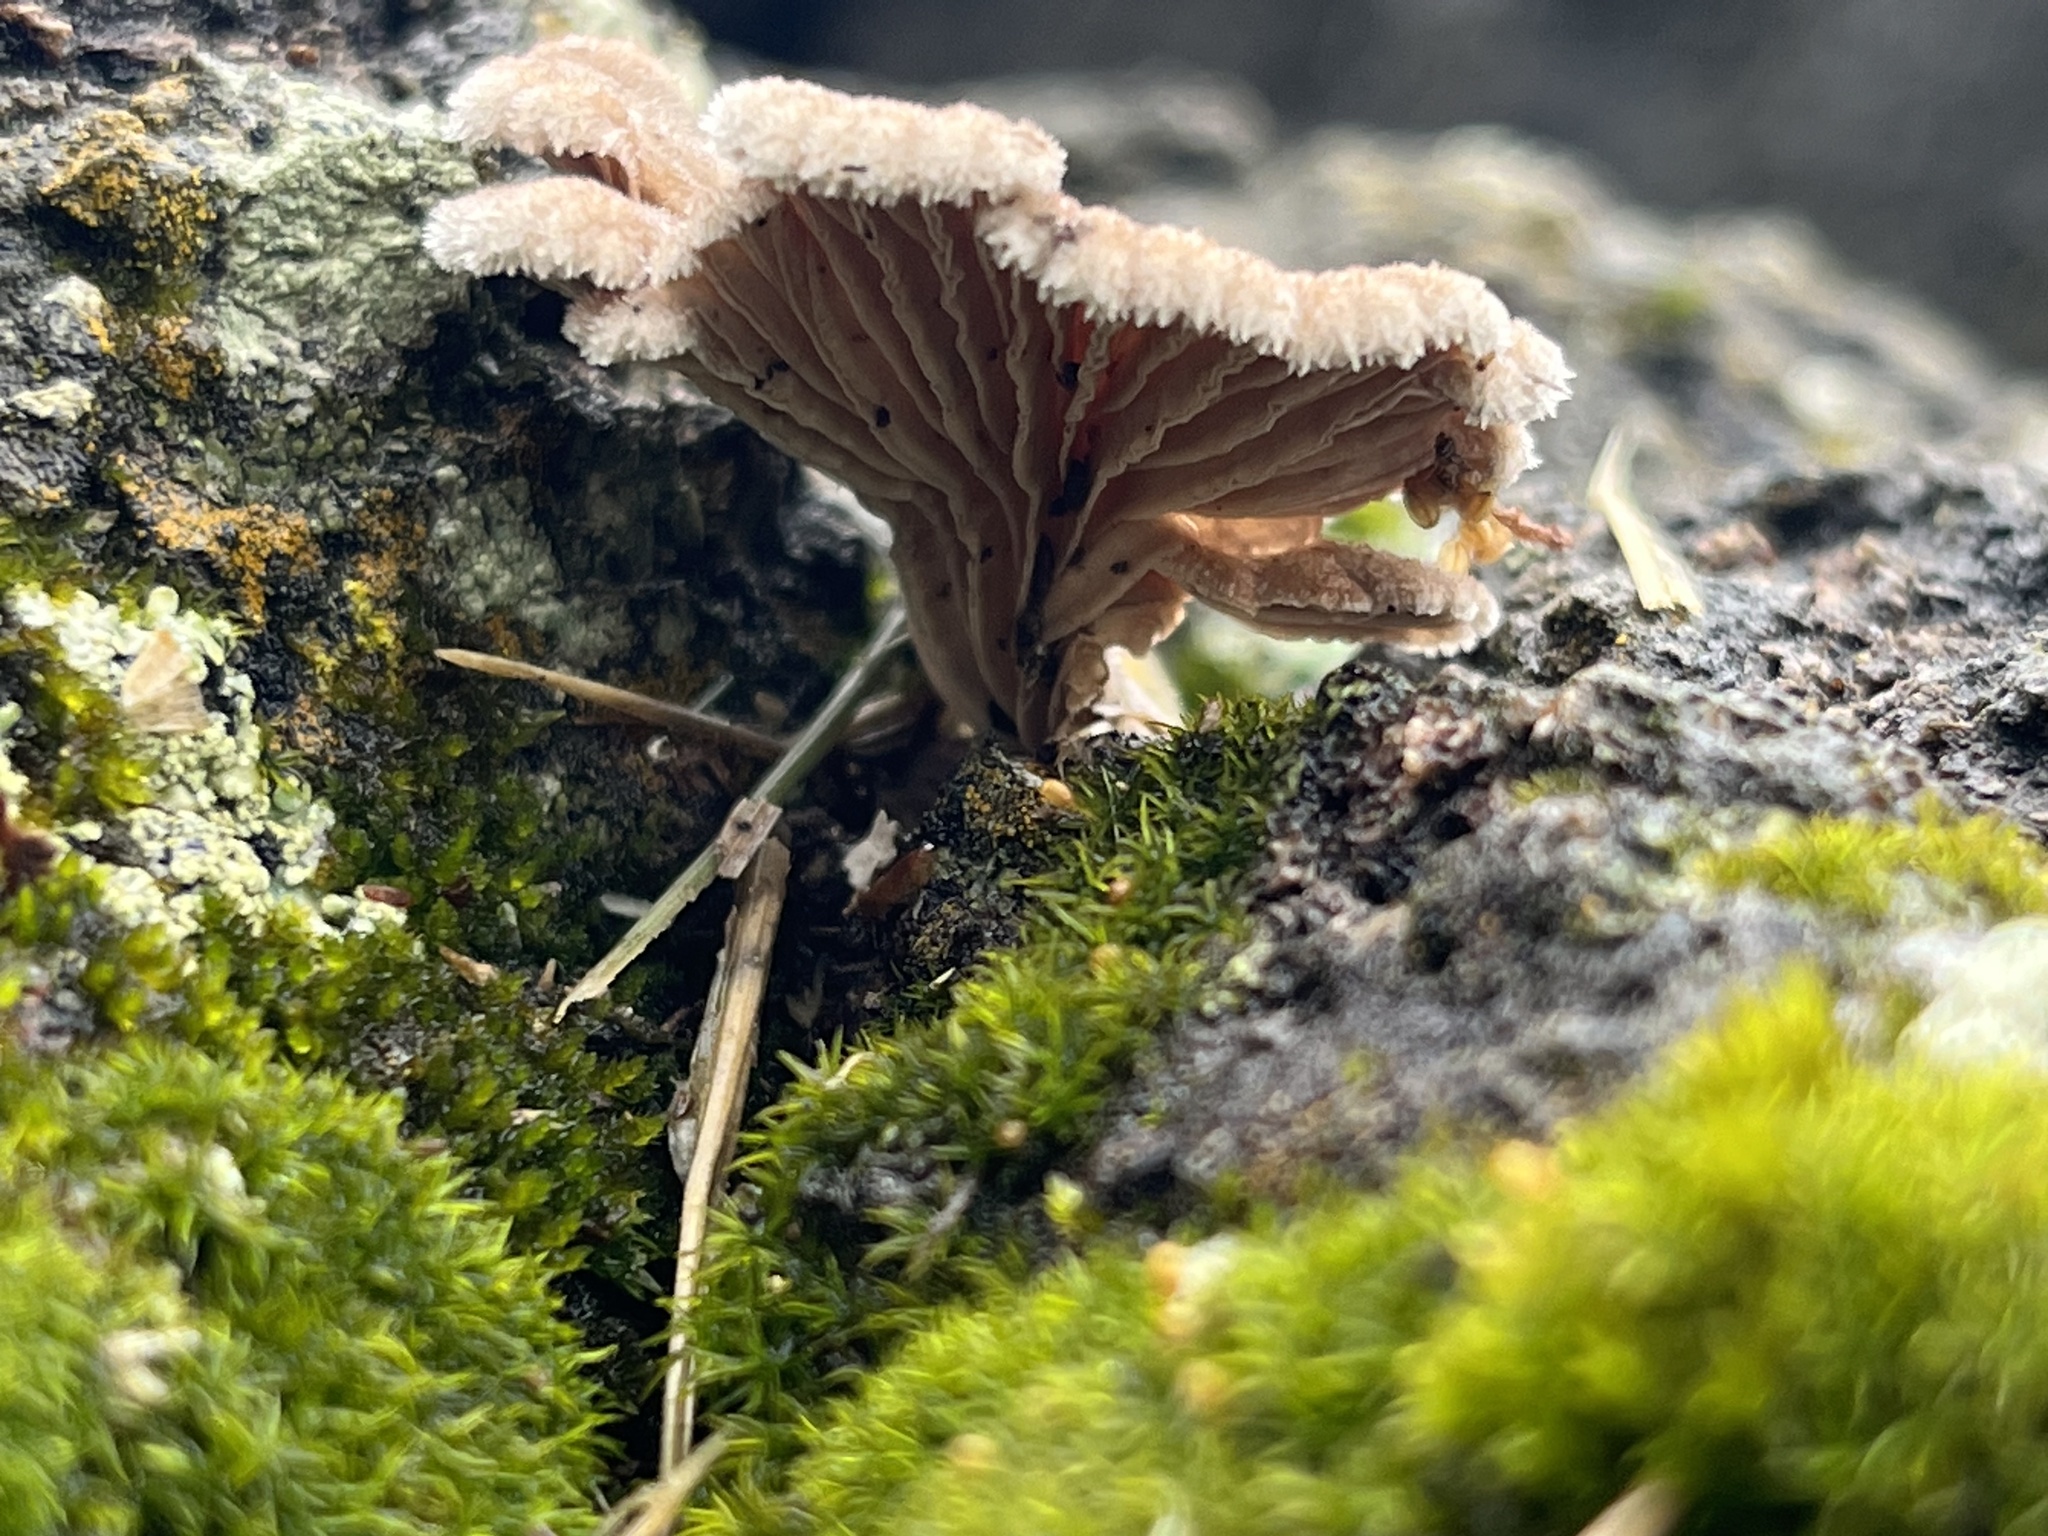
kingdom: Fungi
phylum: Basidiomycota
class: Agaricomycetes
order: Agaricales
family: Schizophyllaceae
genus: Schizophyllum
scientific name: Schizophyllum commune
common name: Common porecrust
